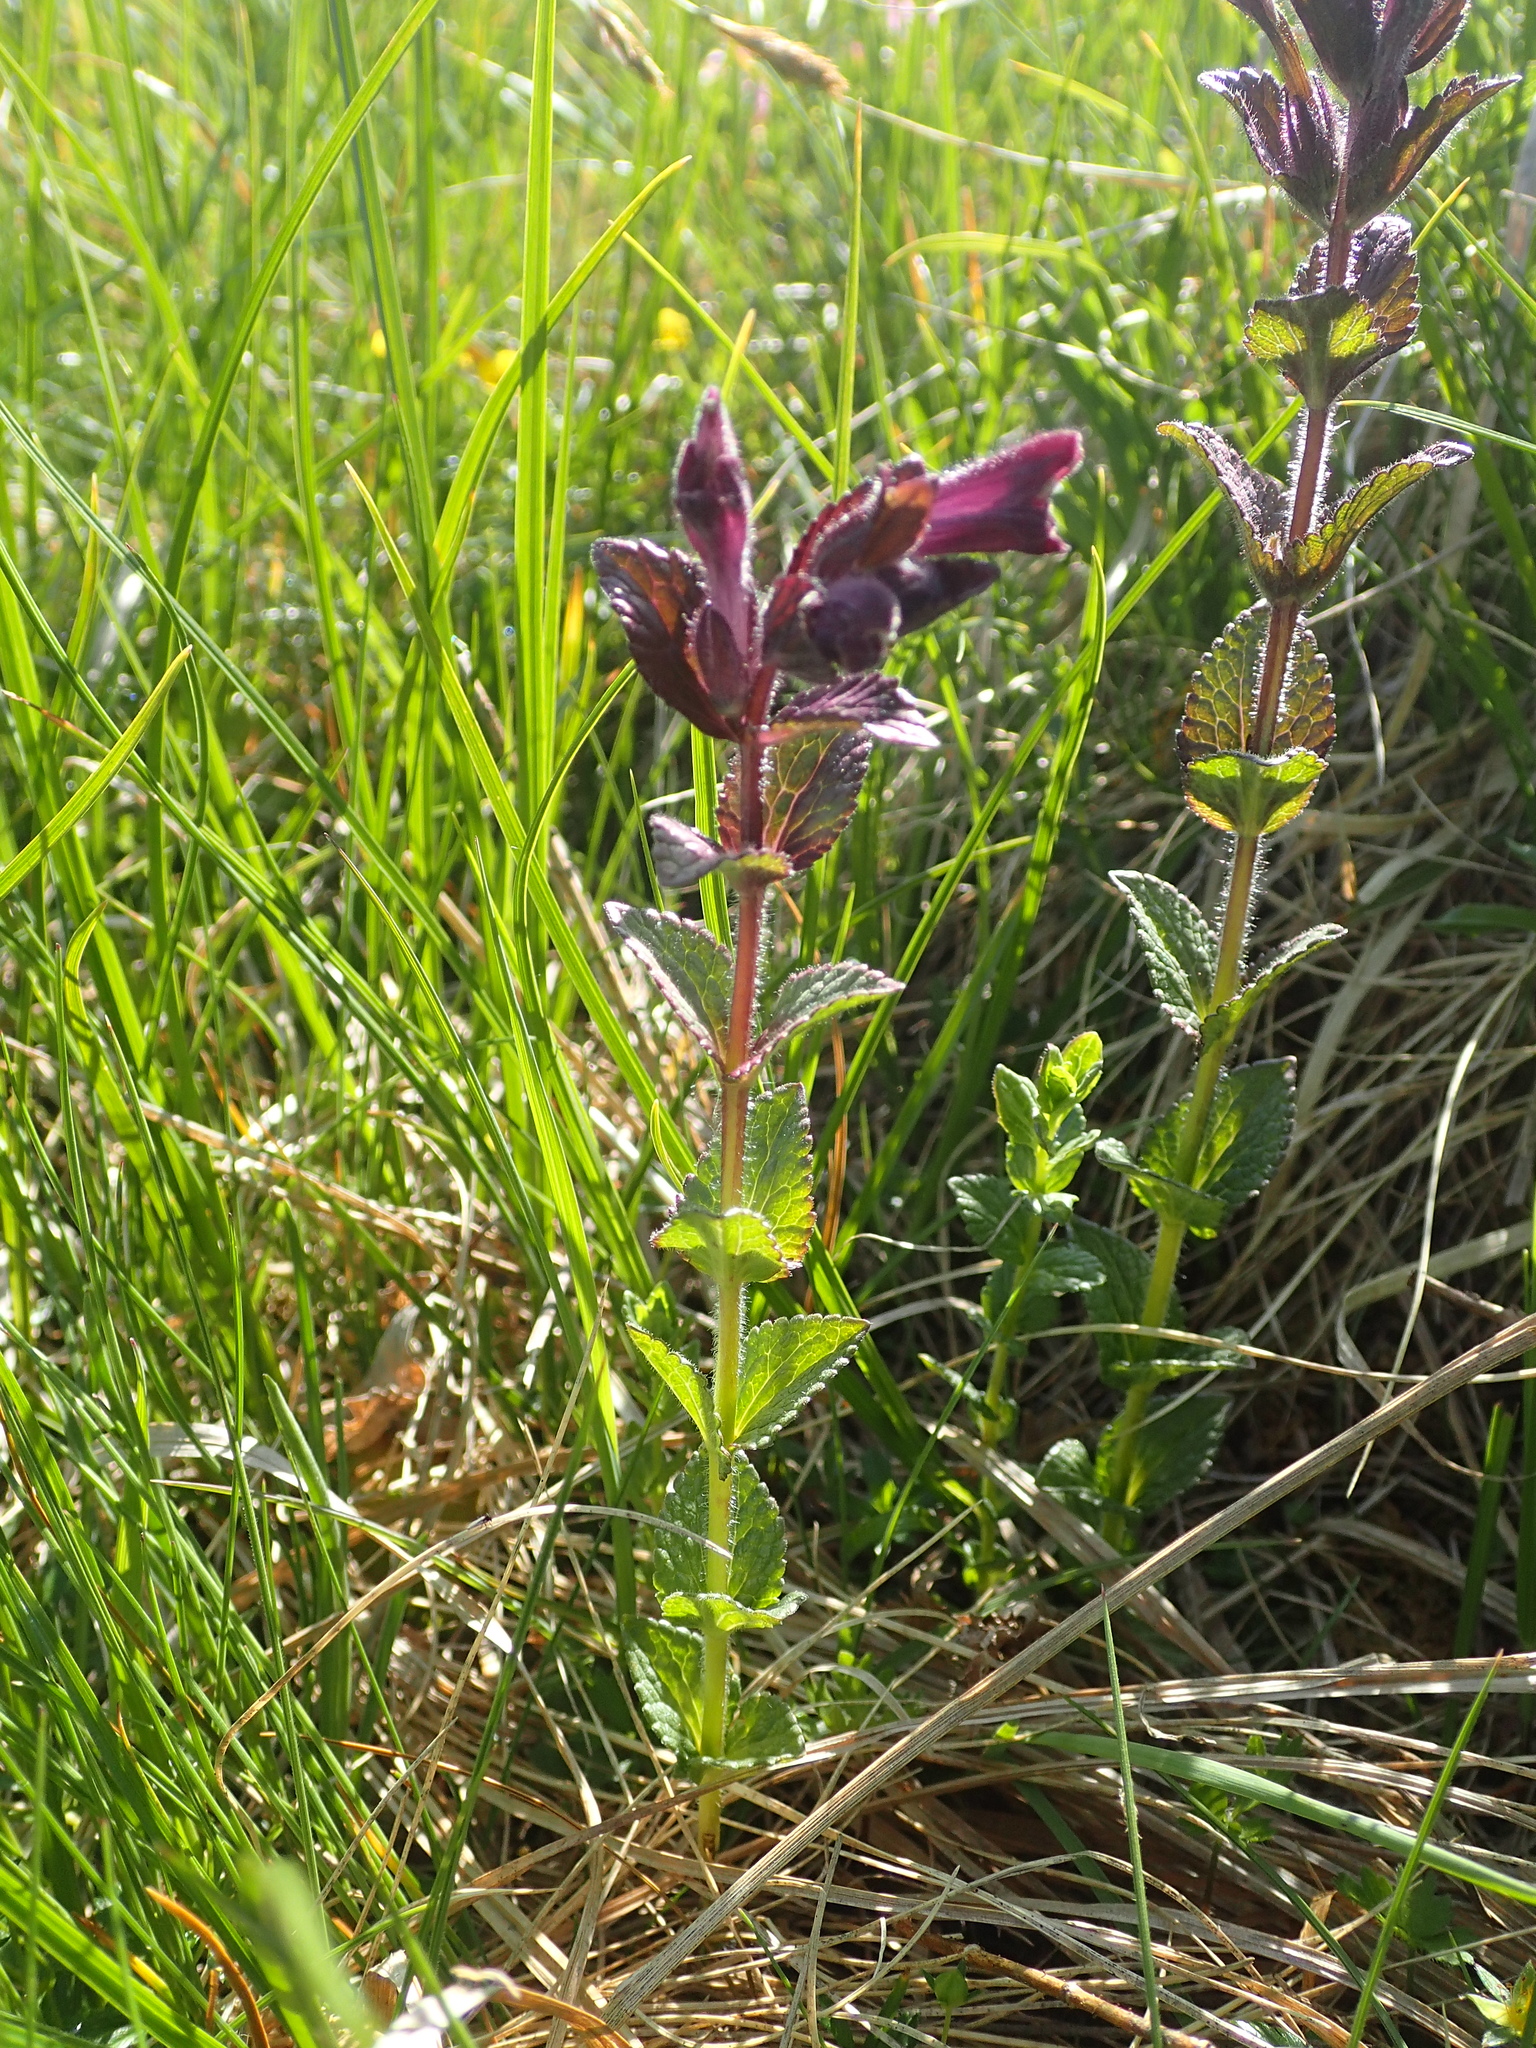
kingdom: Plantae
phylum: Tracheophyta
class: Magnoliopsida
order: Lamiales
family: Orobanchaceae
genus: Bartsia
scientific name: Bartsia alpina
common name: Alpine bartsia
